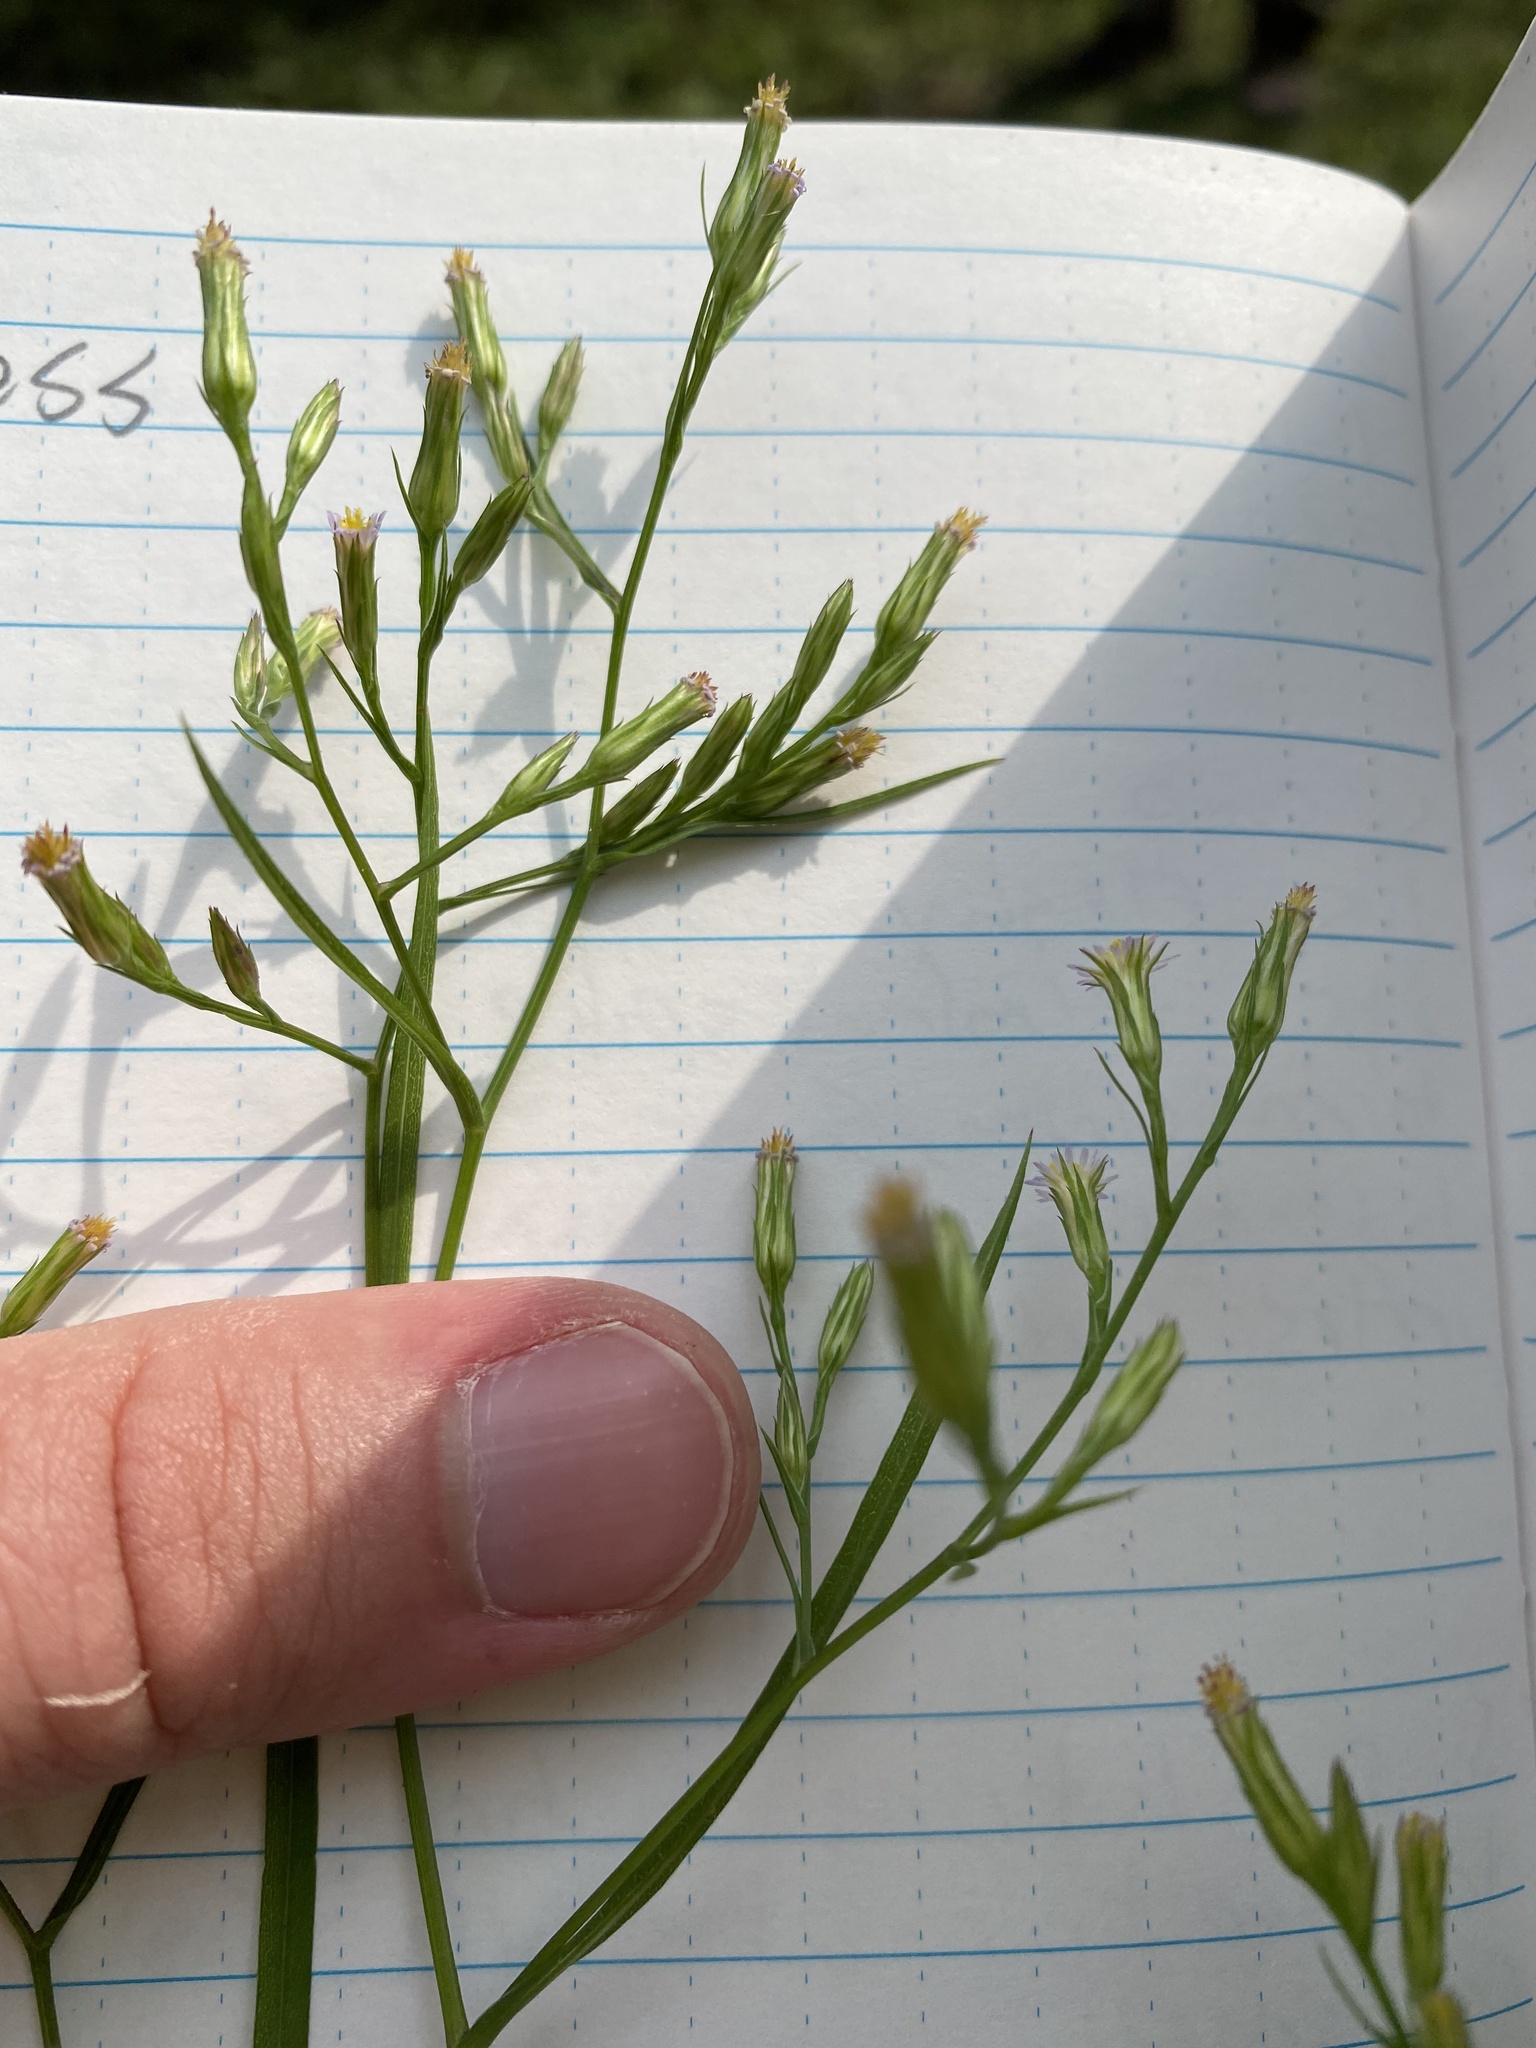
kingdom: Plantae
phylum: Tracheophyta
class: Magnoliopsida
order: Asterales
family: Asteraceae
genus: Symphyotrichum
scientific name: Symphyotrichum subulatum
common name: Annual saltmarsh aster
